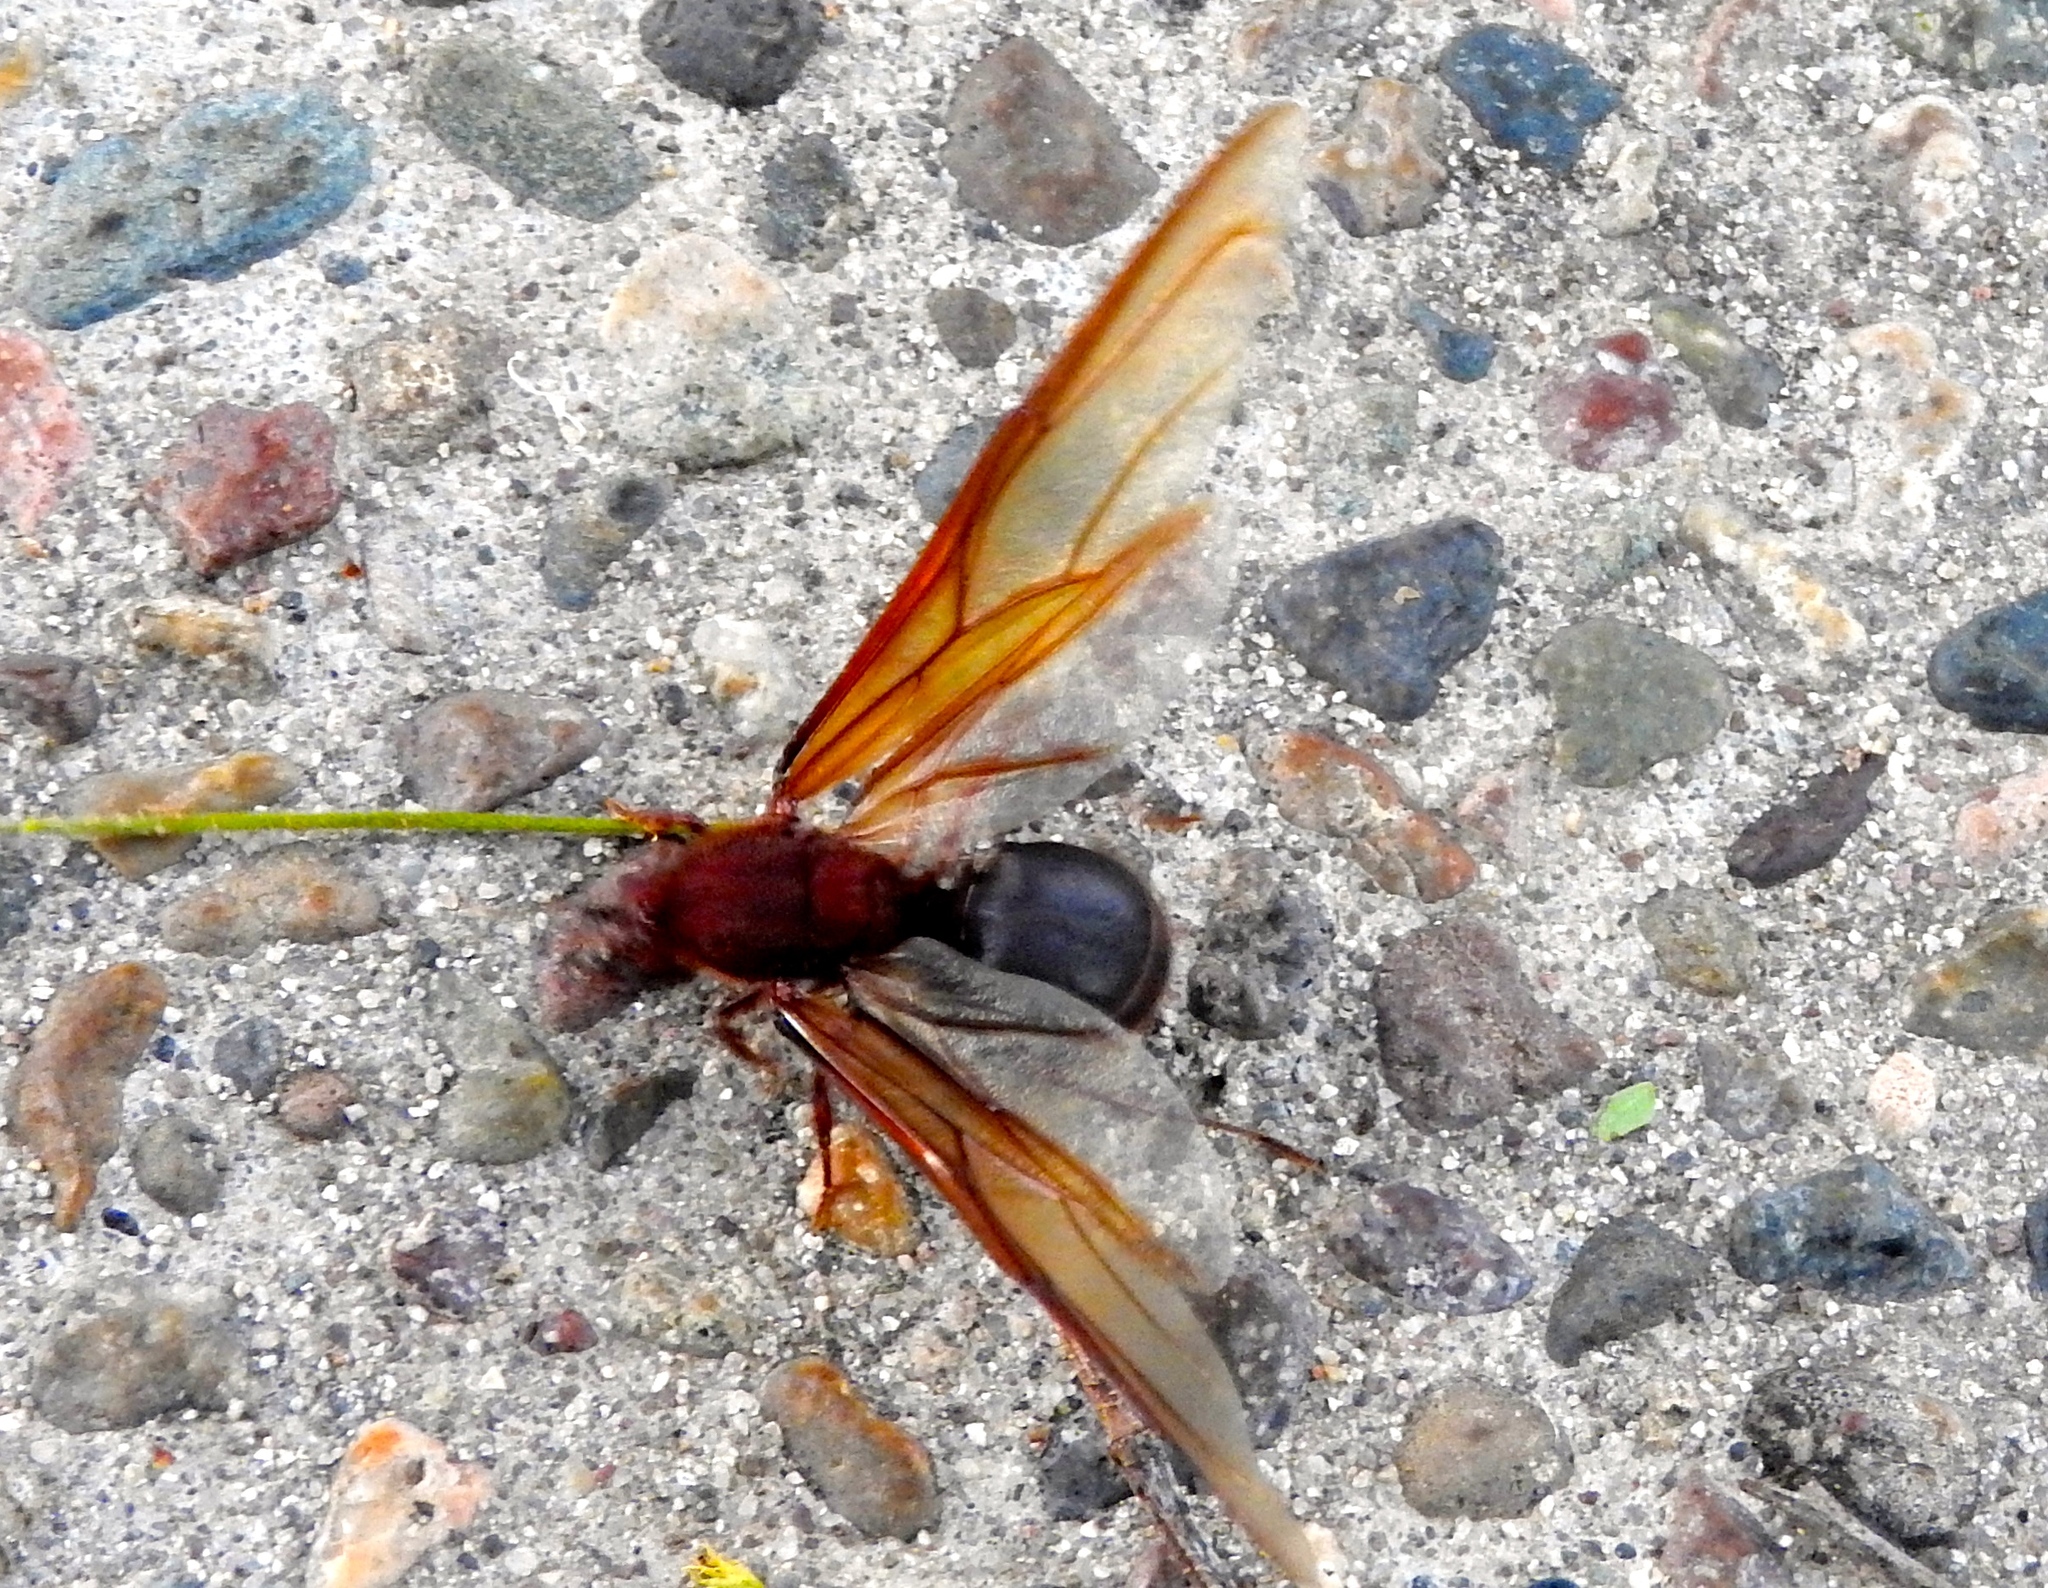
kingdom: Animalia
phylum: Arthropoda
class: Insecta
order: Hymenoptera
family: Formicidae
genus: Atta
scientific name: Atta mexicana
